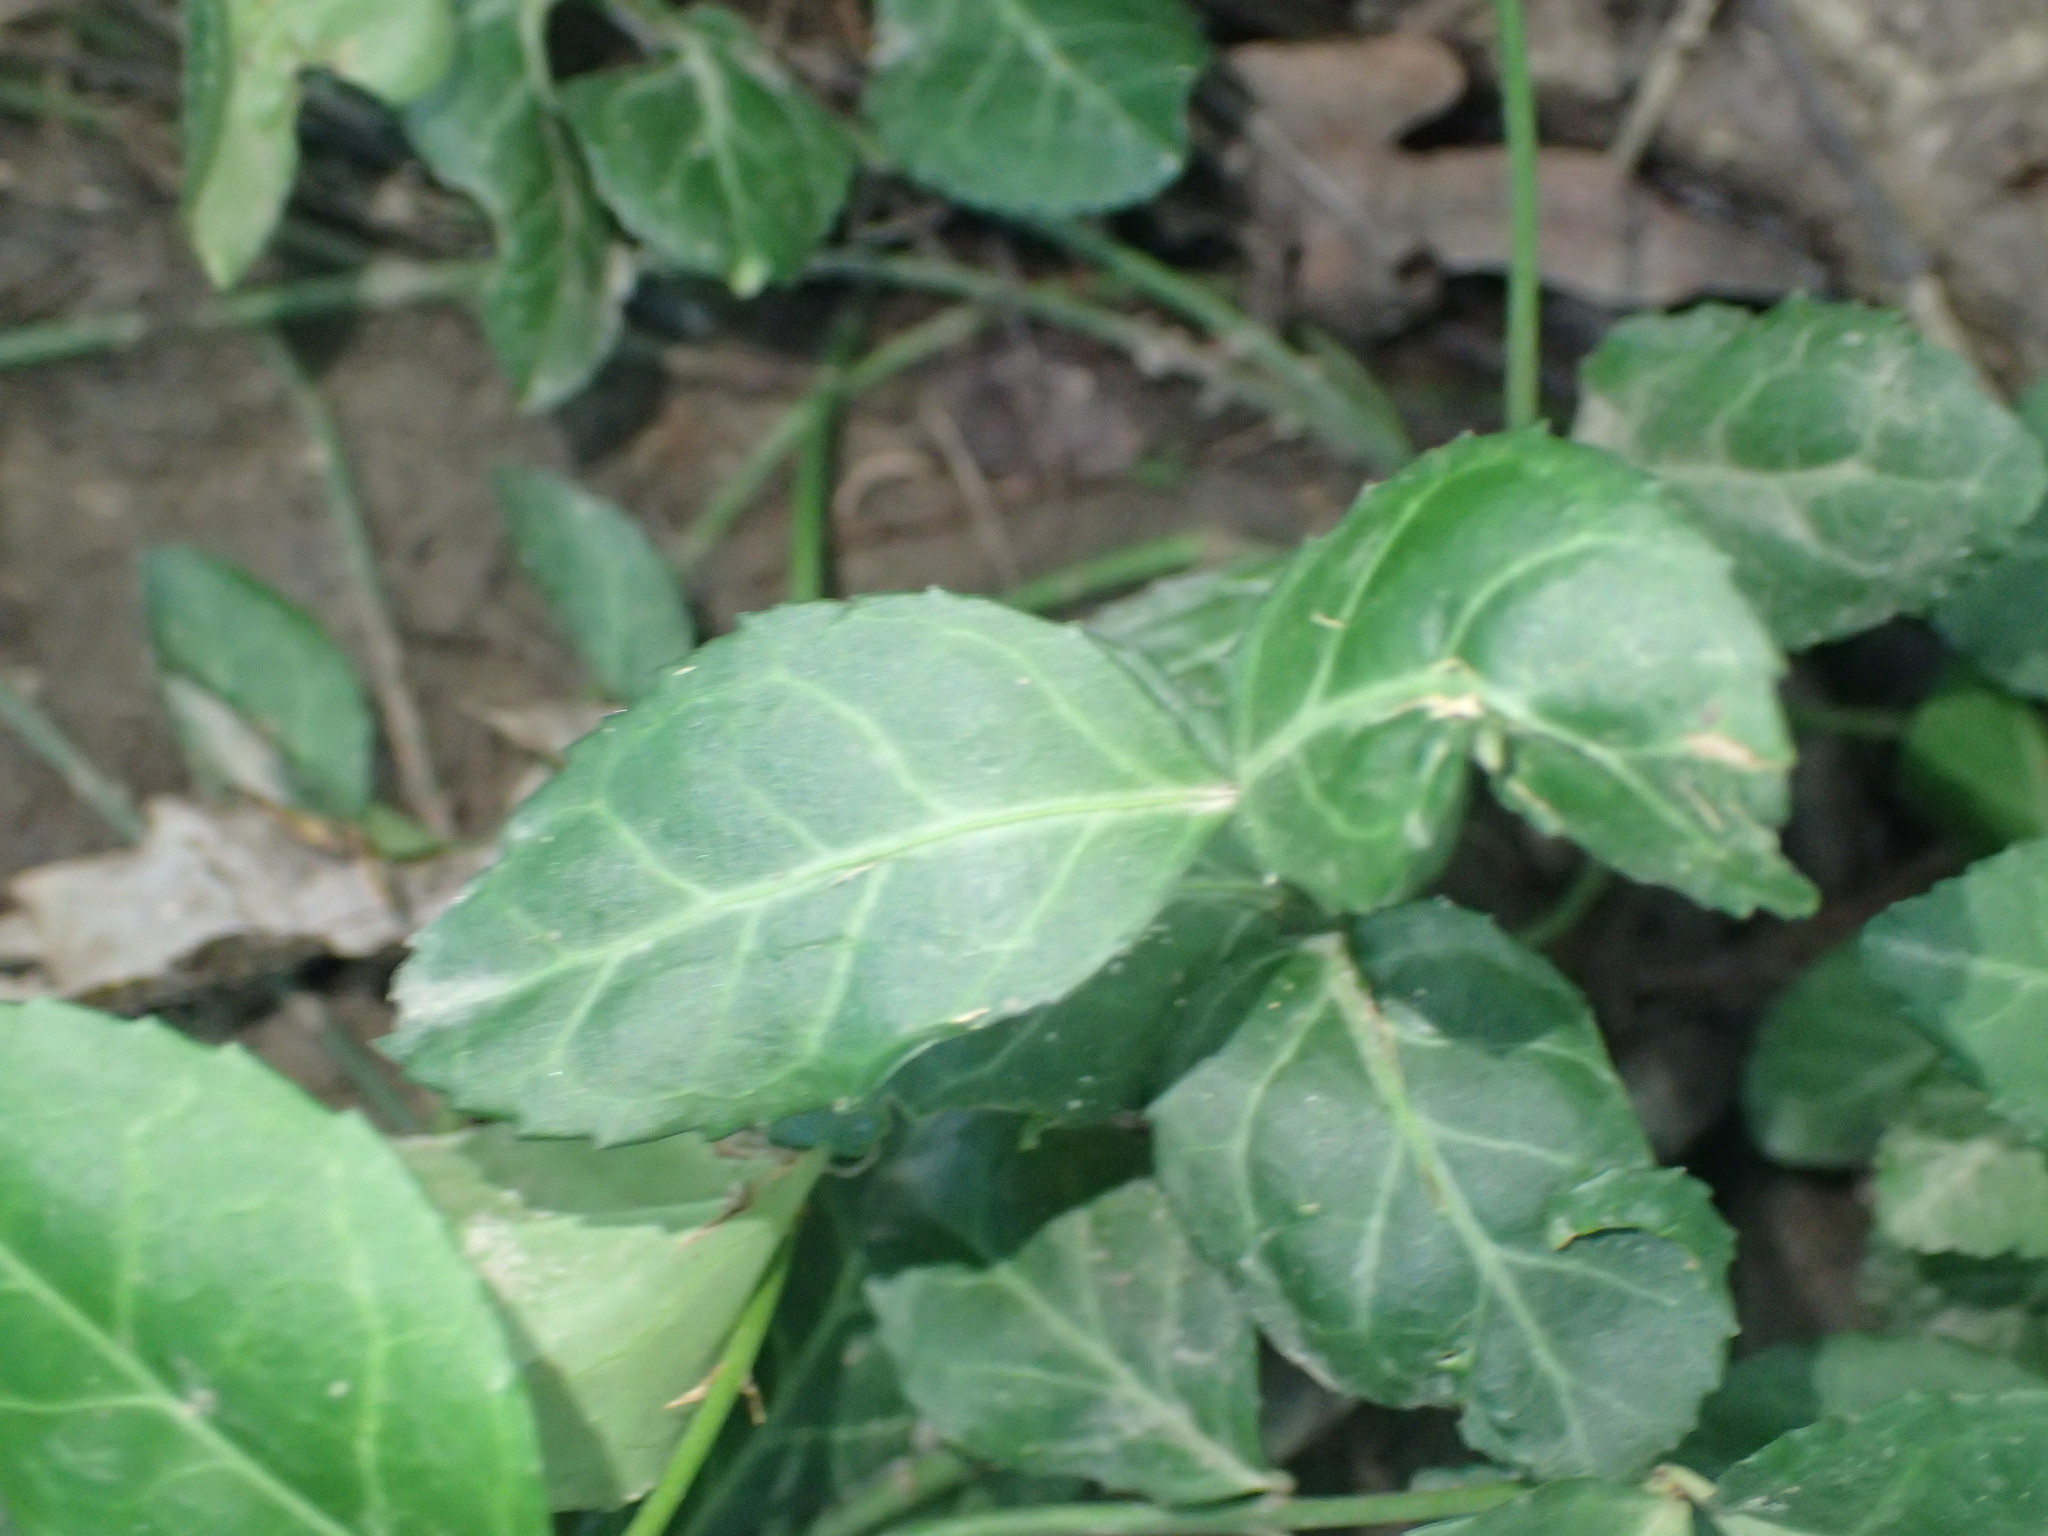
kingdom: Plantae
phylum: Tracheophyta
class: Magnoliopsida
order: Celastrales
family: Celastraceae
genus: Euonymus
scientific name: Euonymus fortunei
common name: Climbing euonymus
